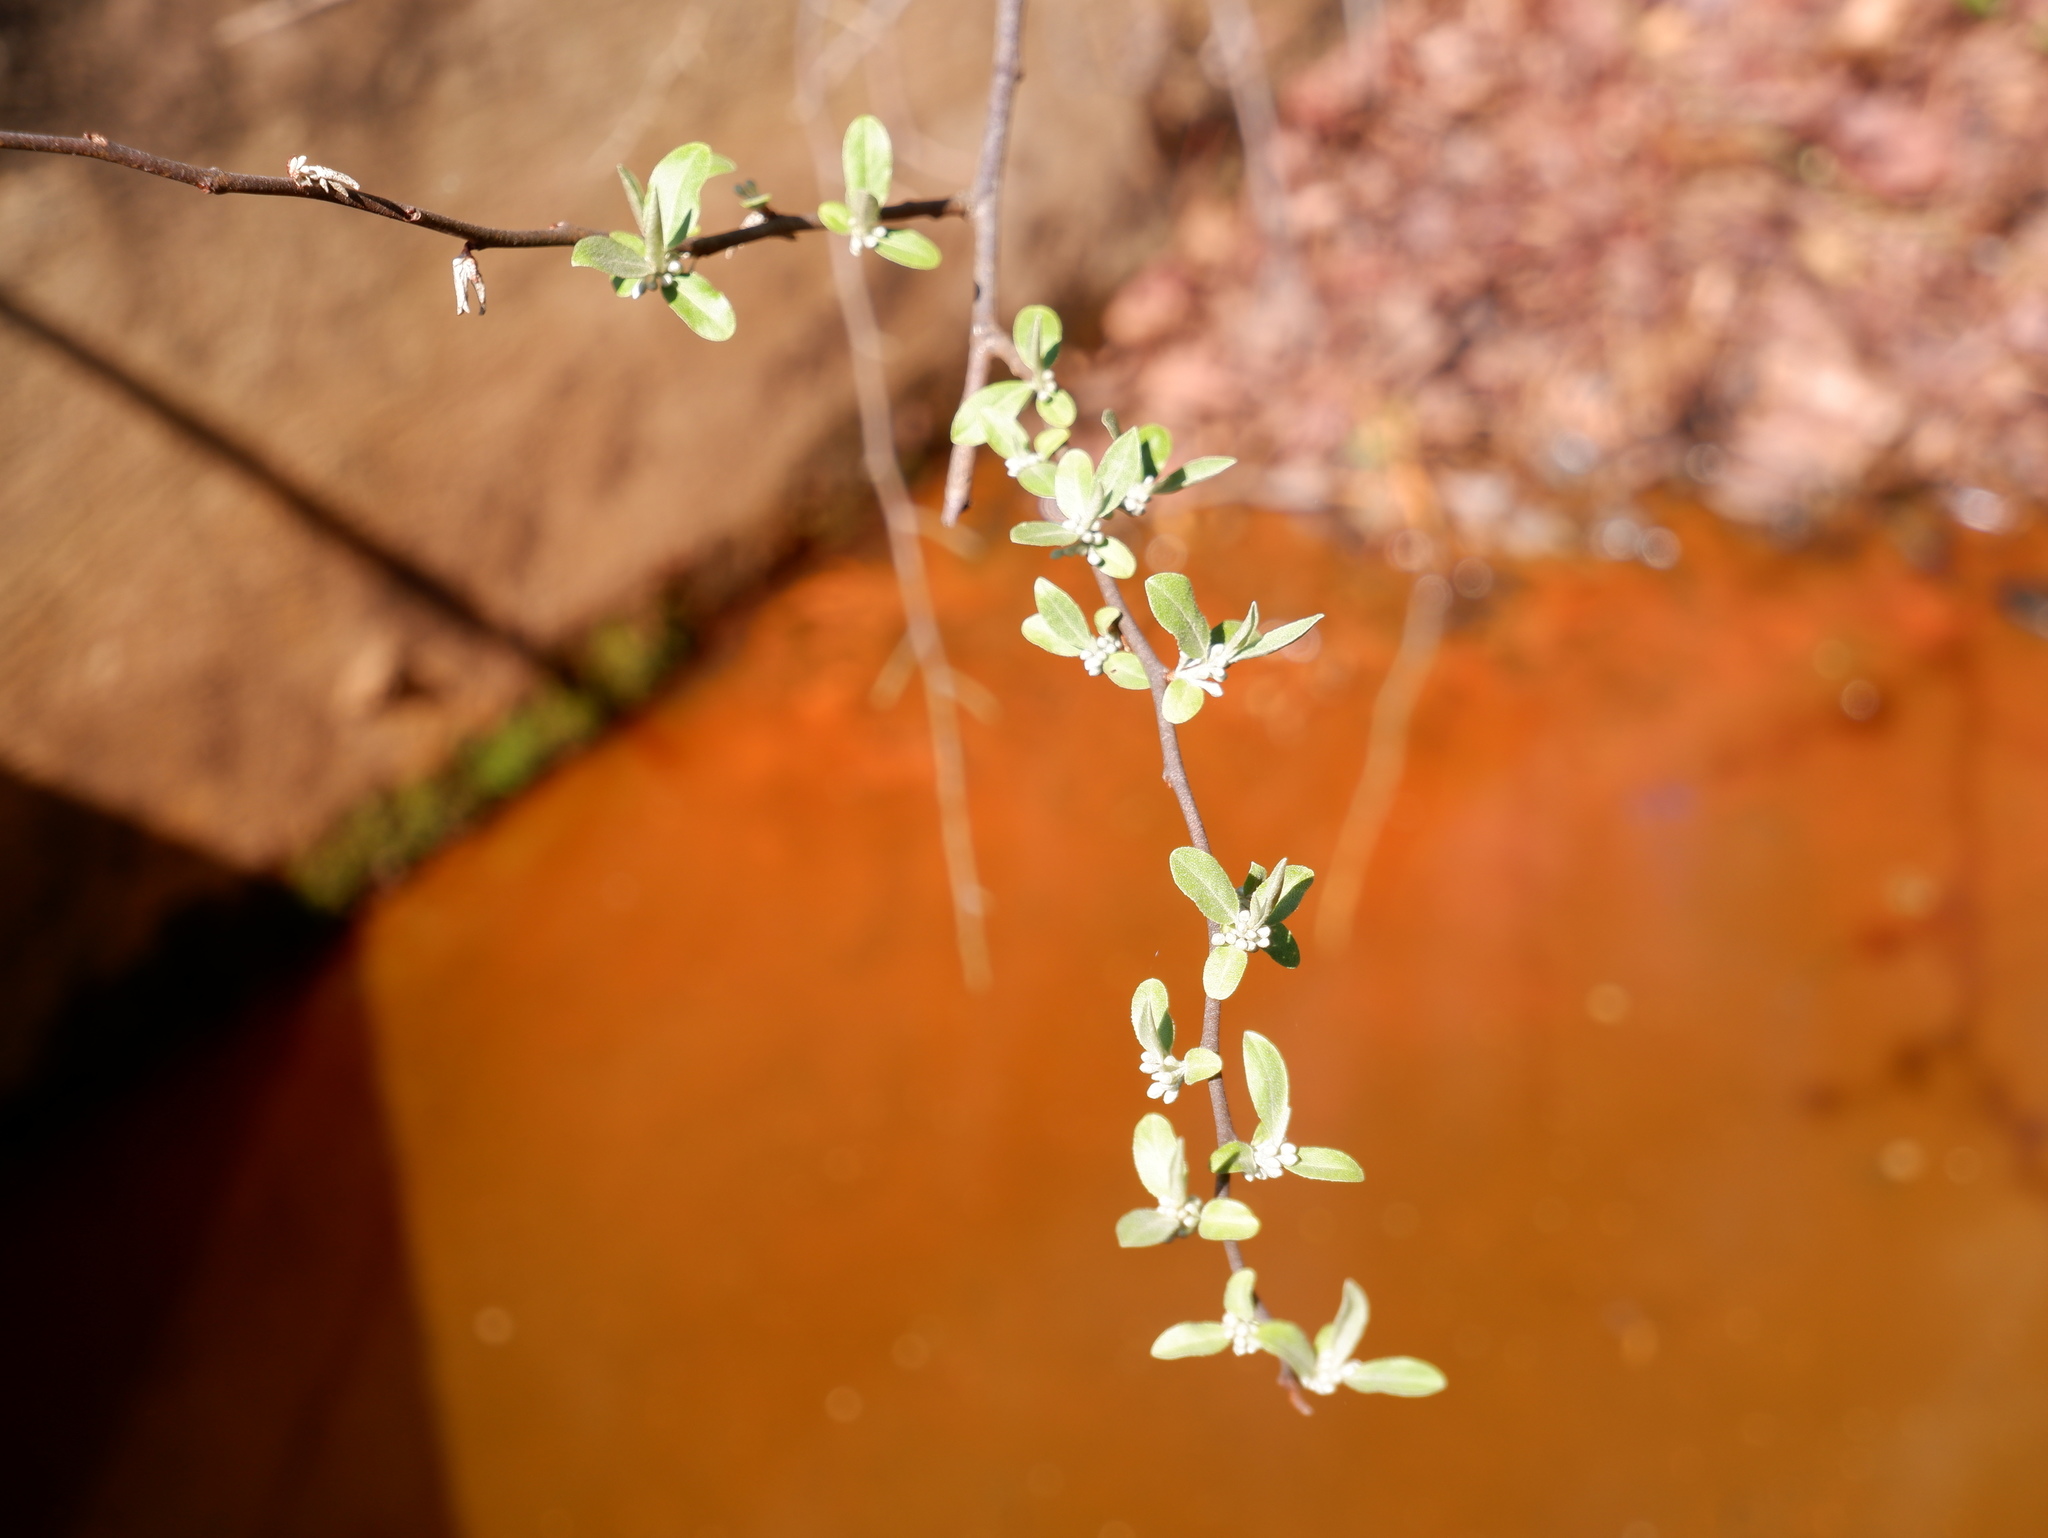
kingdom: Plantae
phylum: Tracheophyta
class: Magnoliopsida
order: Rosales
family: Elaeagnaceae
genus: Elaeagnus
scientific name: Elaeagnus umbellata
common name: Autumn olive
